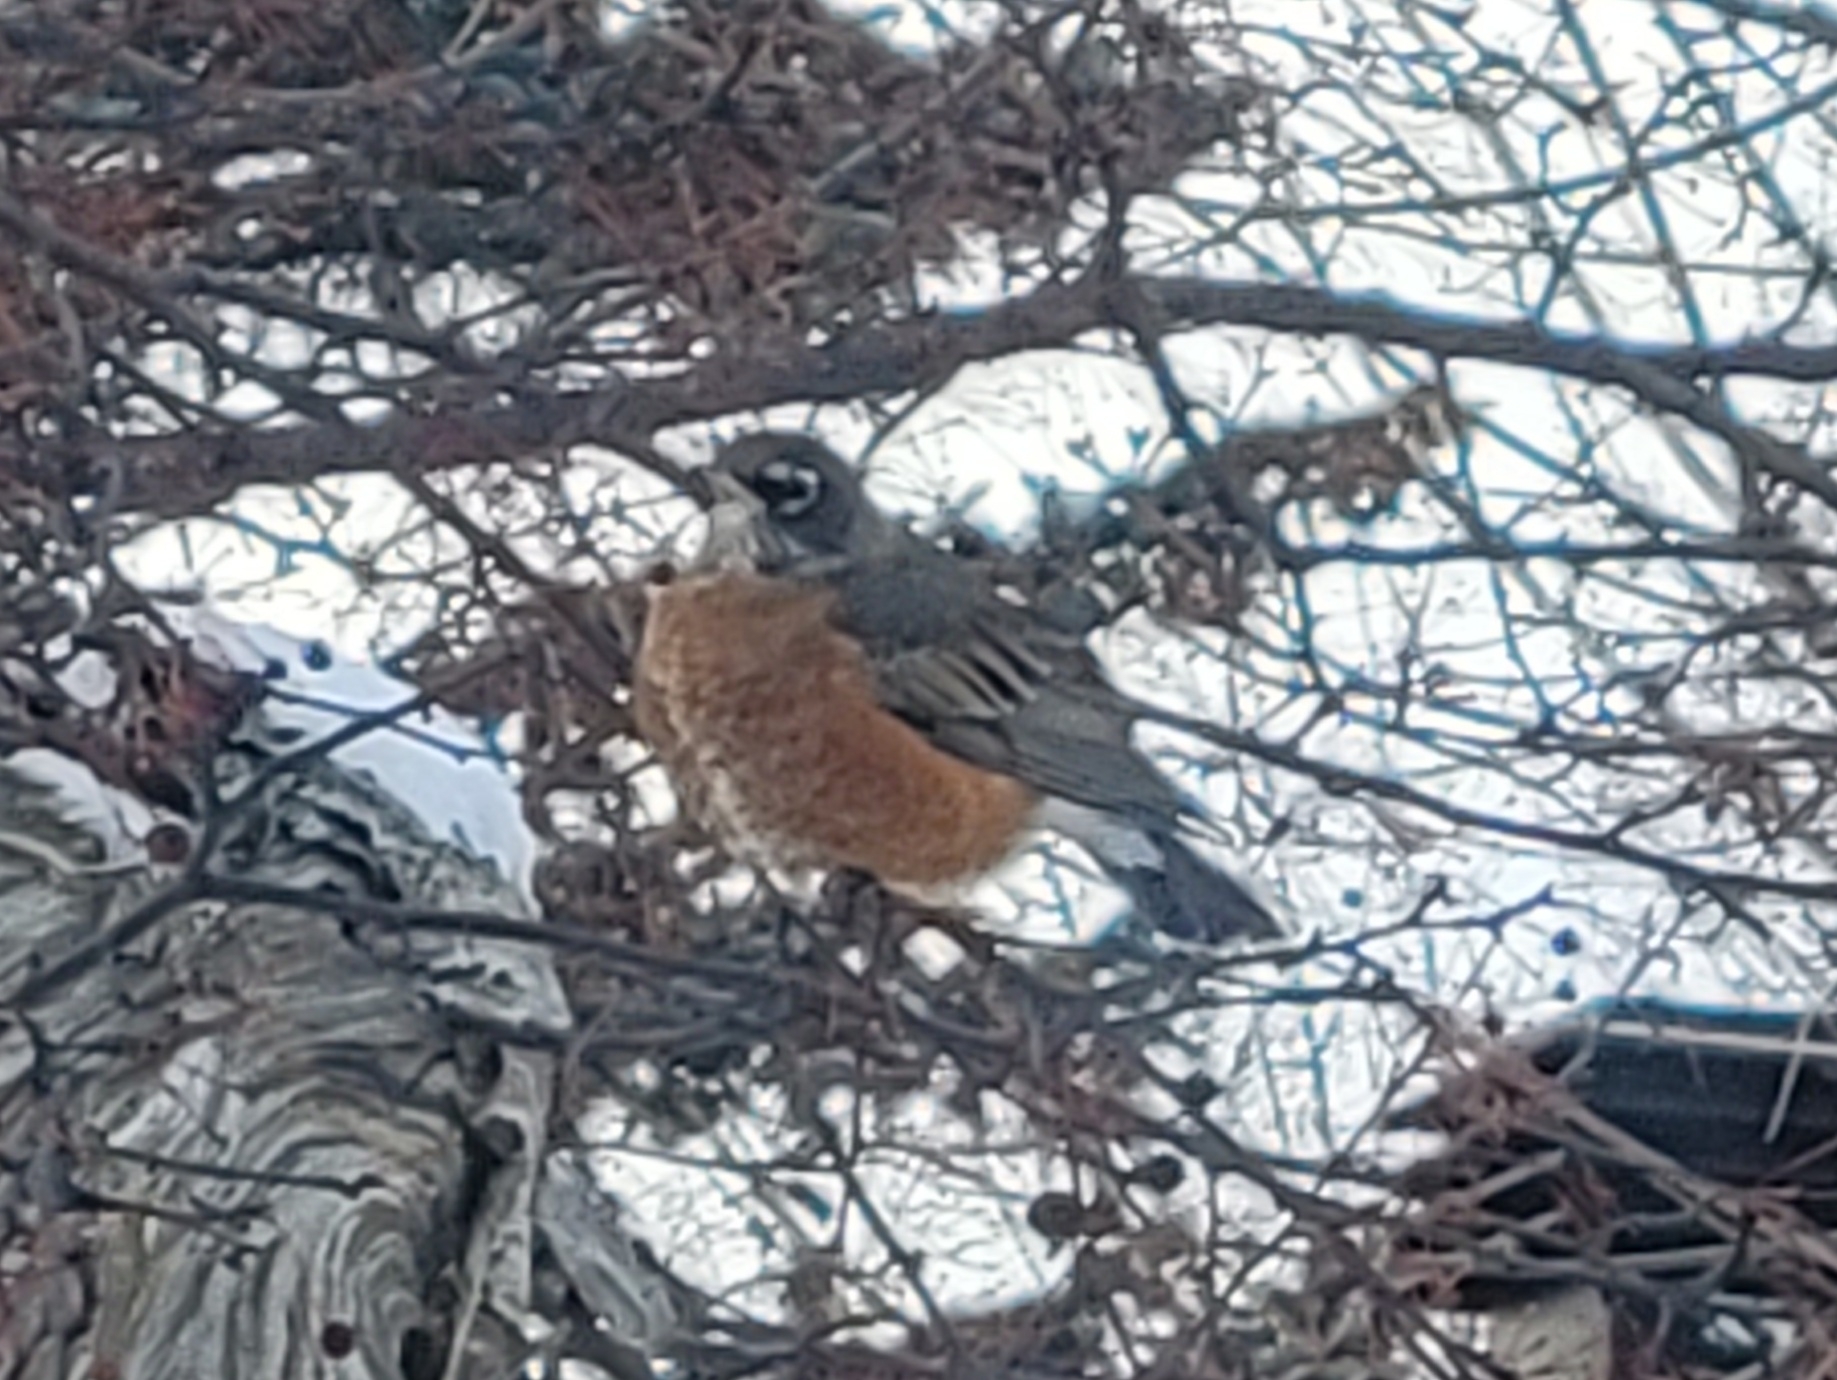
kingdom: Animalia
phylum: Chordata
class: Aves
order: Passeriformes
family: Turdidae
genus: Turdus
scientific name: Turdus migratorius
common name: American robin
